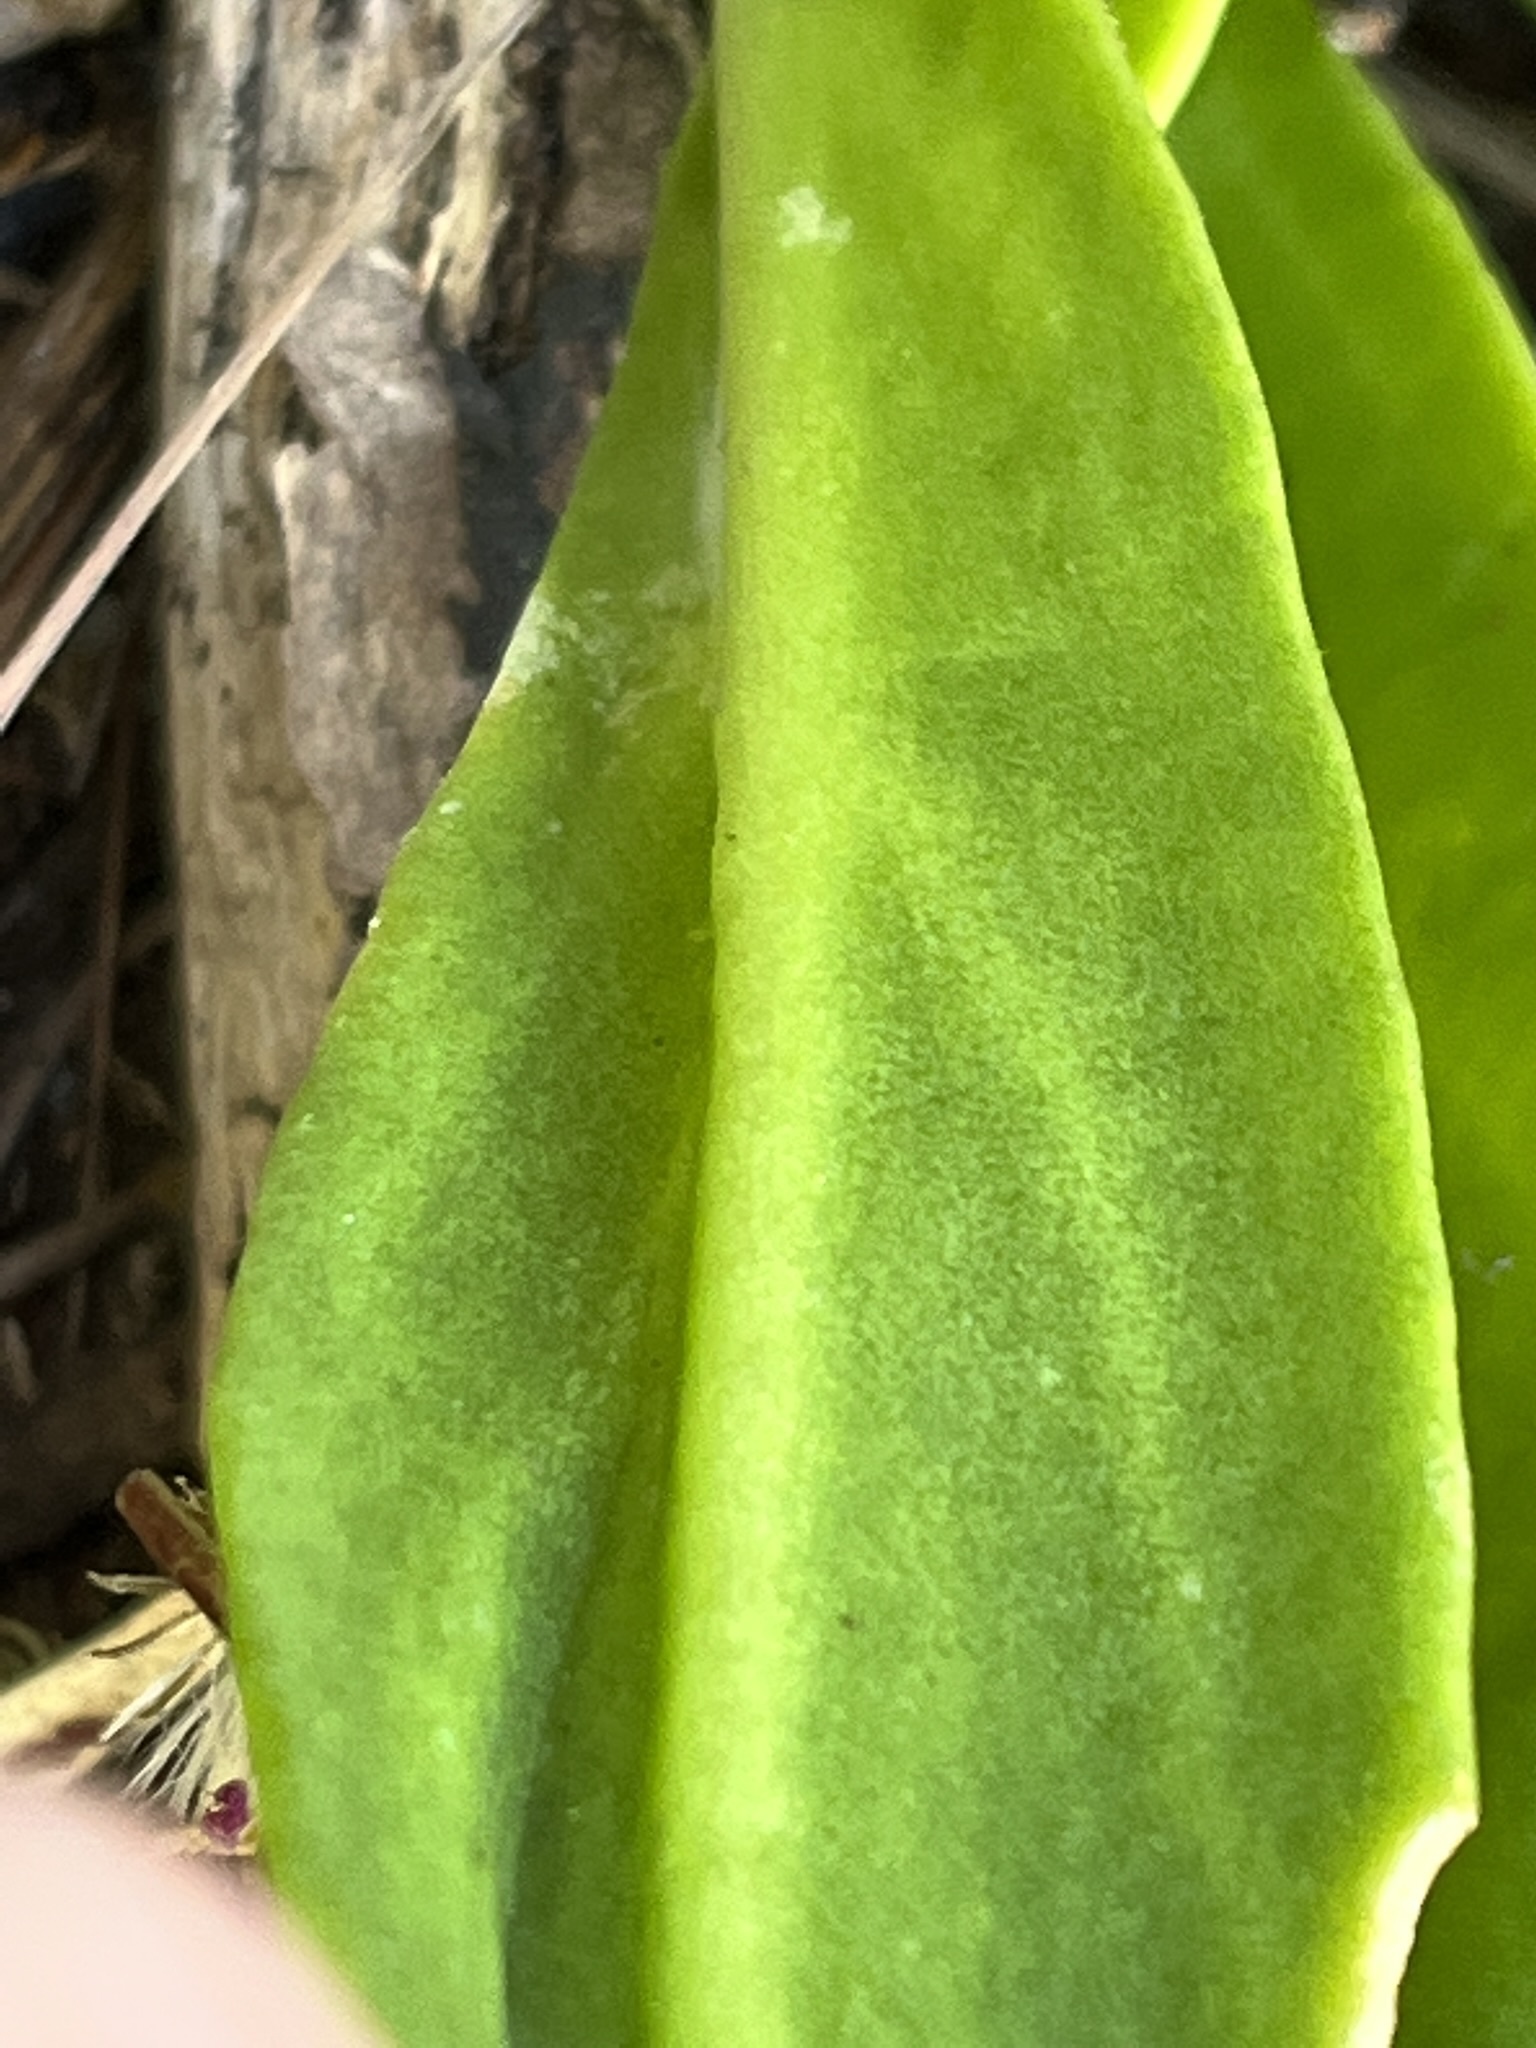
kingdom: Plantae
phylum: Tracheophyta
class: Magnoliopsida
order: Caryophyllales
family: Aizoaceae
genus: Skiatophytum
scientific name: Skiatophytum skiatophytoides
